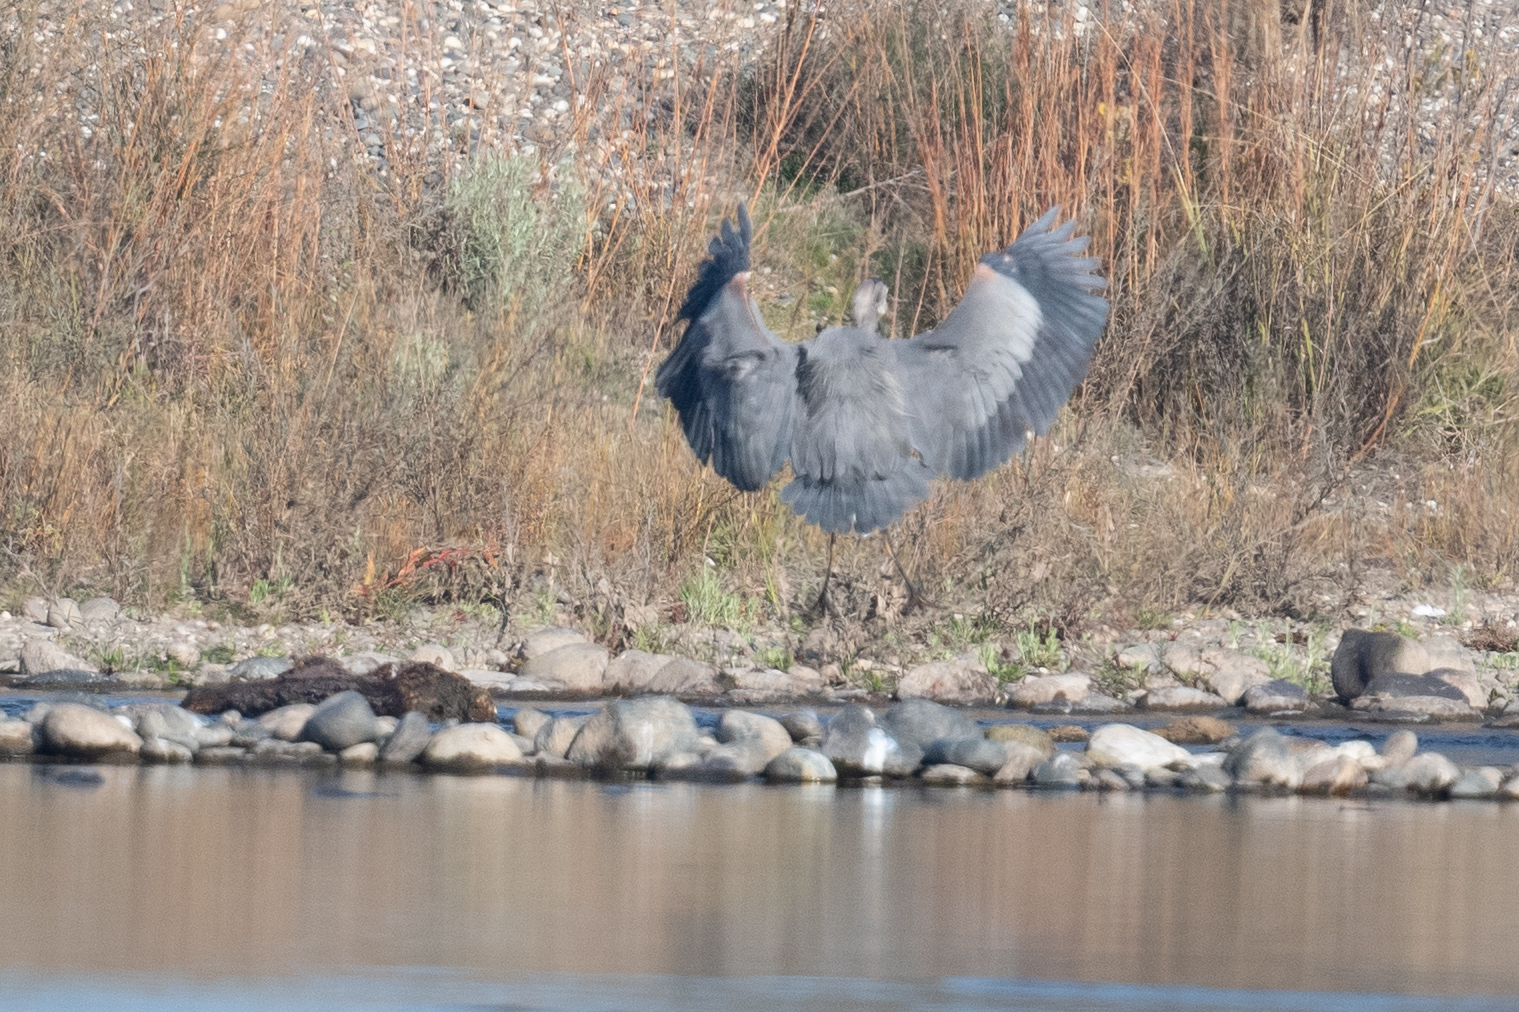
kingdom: Animalia
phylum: Chordata
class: Aves
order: Pelecaniformes
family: Ardeidae
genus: Ardea
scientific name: Ardea herodias
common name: Great blue heron
